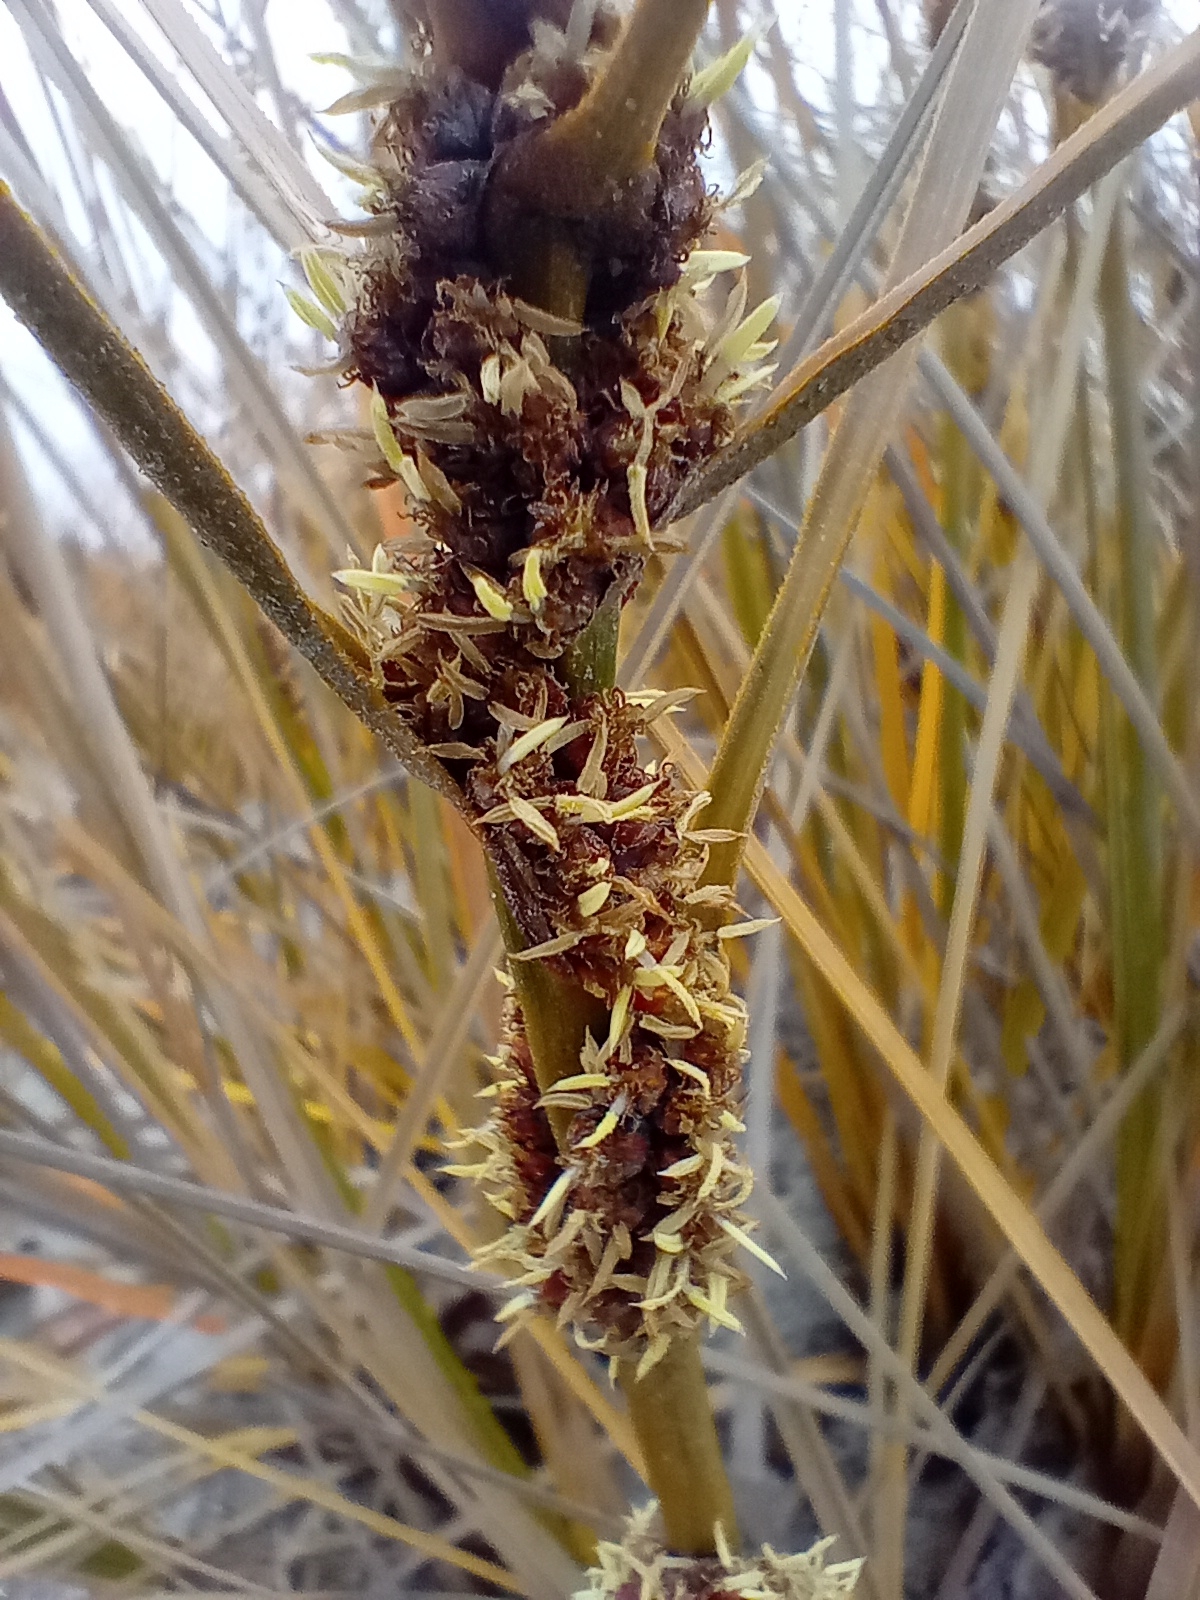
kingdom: Plantae
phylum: Tracheophyta
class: Liliopsida
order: Poales
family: Cyperaceae
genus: Ficinia
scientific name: Ficinia spiralis
